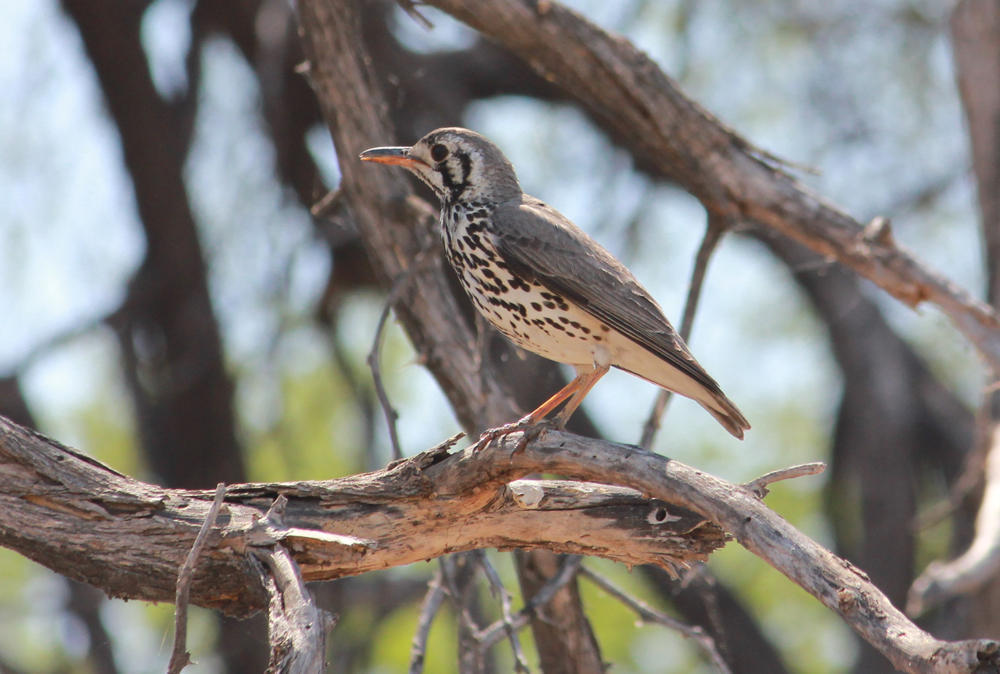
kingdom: Animalia
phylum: Chordata
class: Aves
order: Passeriformes
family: Turdidae
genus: Psophocichla
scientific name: Psophocichla litsitsirupa
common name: Groundscraper thrush
